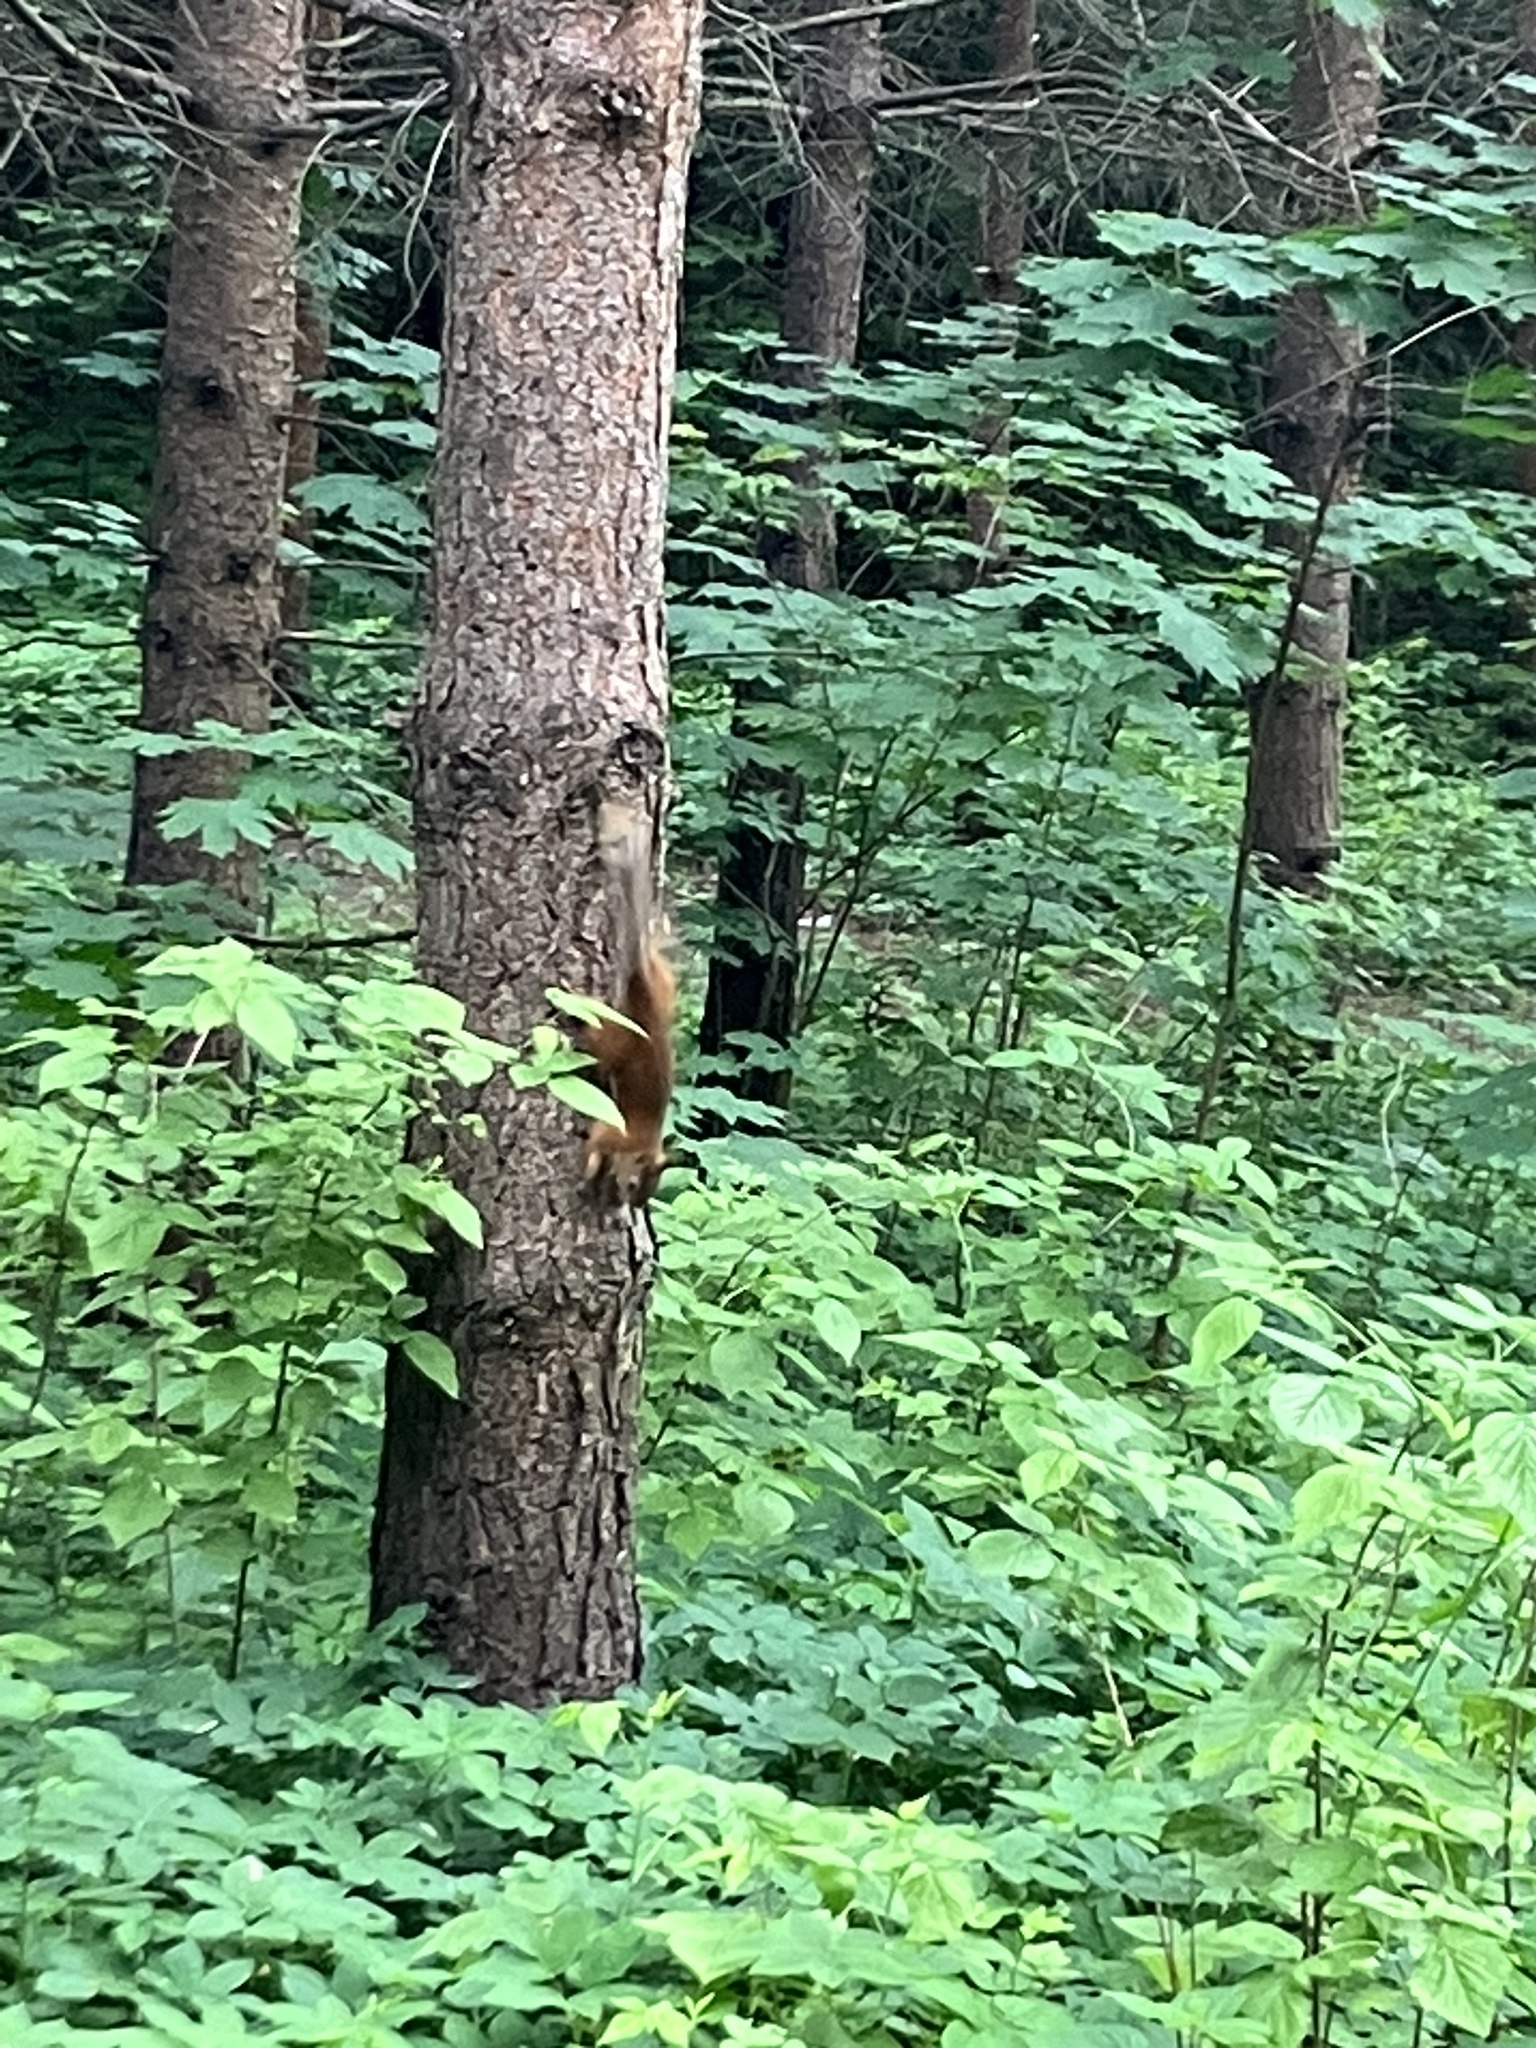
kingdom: Animalia
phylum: Chordata
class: Mammalia
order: Rodentia
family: Sciuridae
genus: Sciurus
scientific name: Sciurus vulgaris
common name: Eurasian red squirrel
